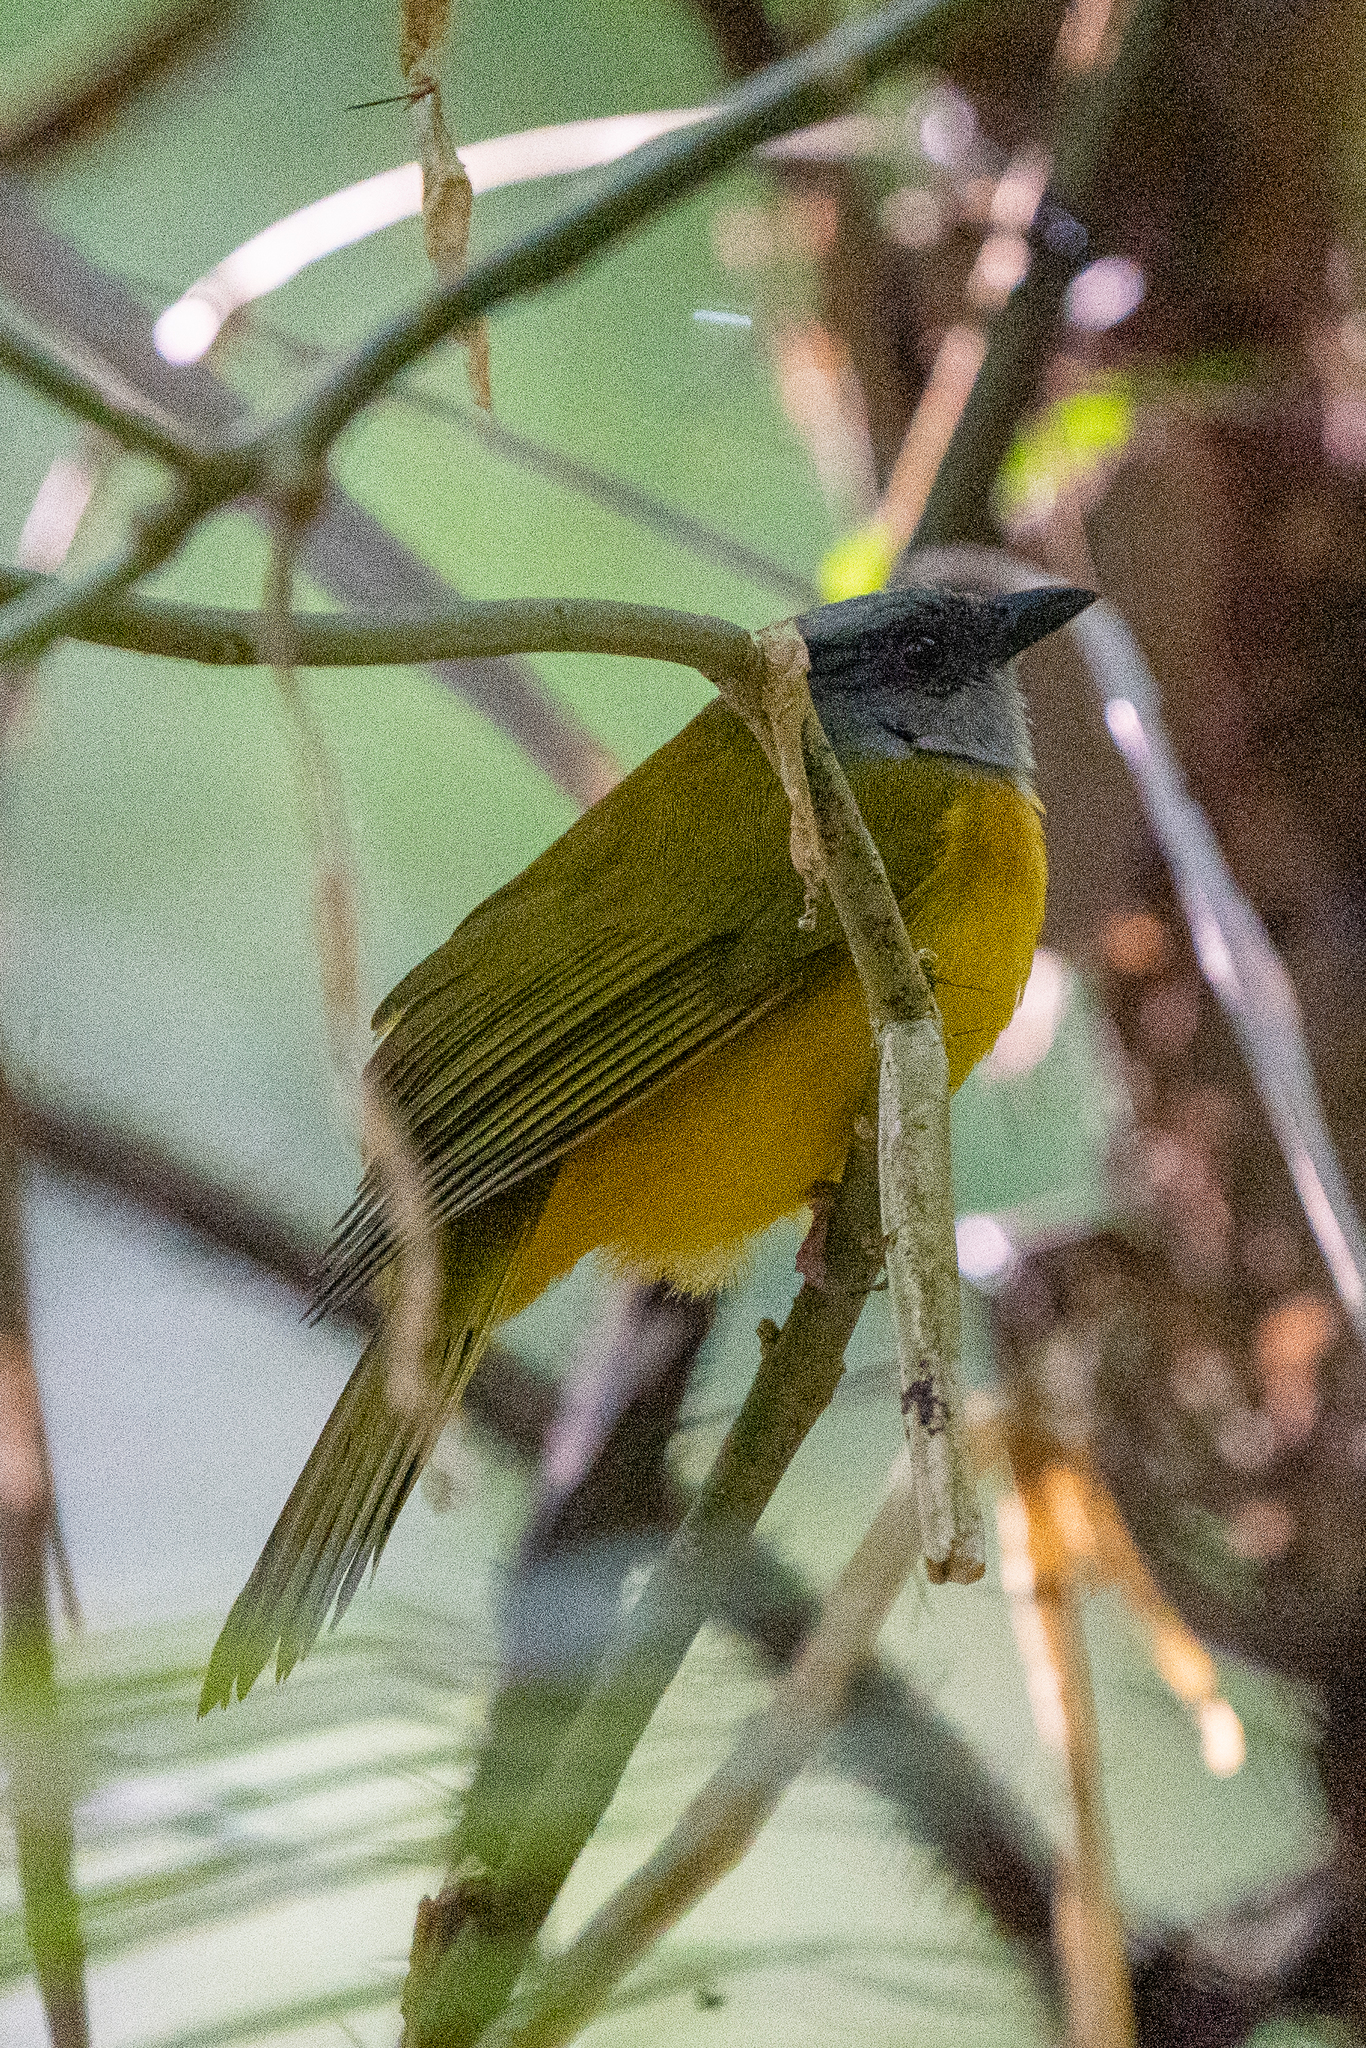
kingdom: Animalia
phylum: Chordata
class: Aves
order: Passeriformes
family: Thraupidae
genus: Eucometis
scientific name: Eucometis penicillata
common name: Grey-headed tanager
